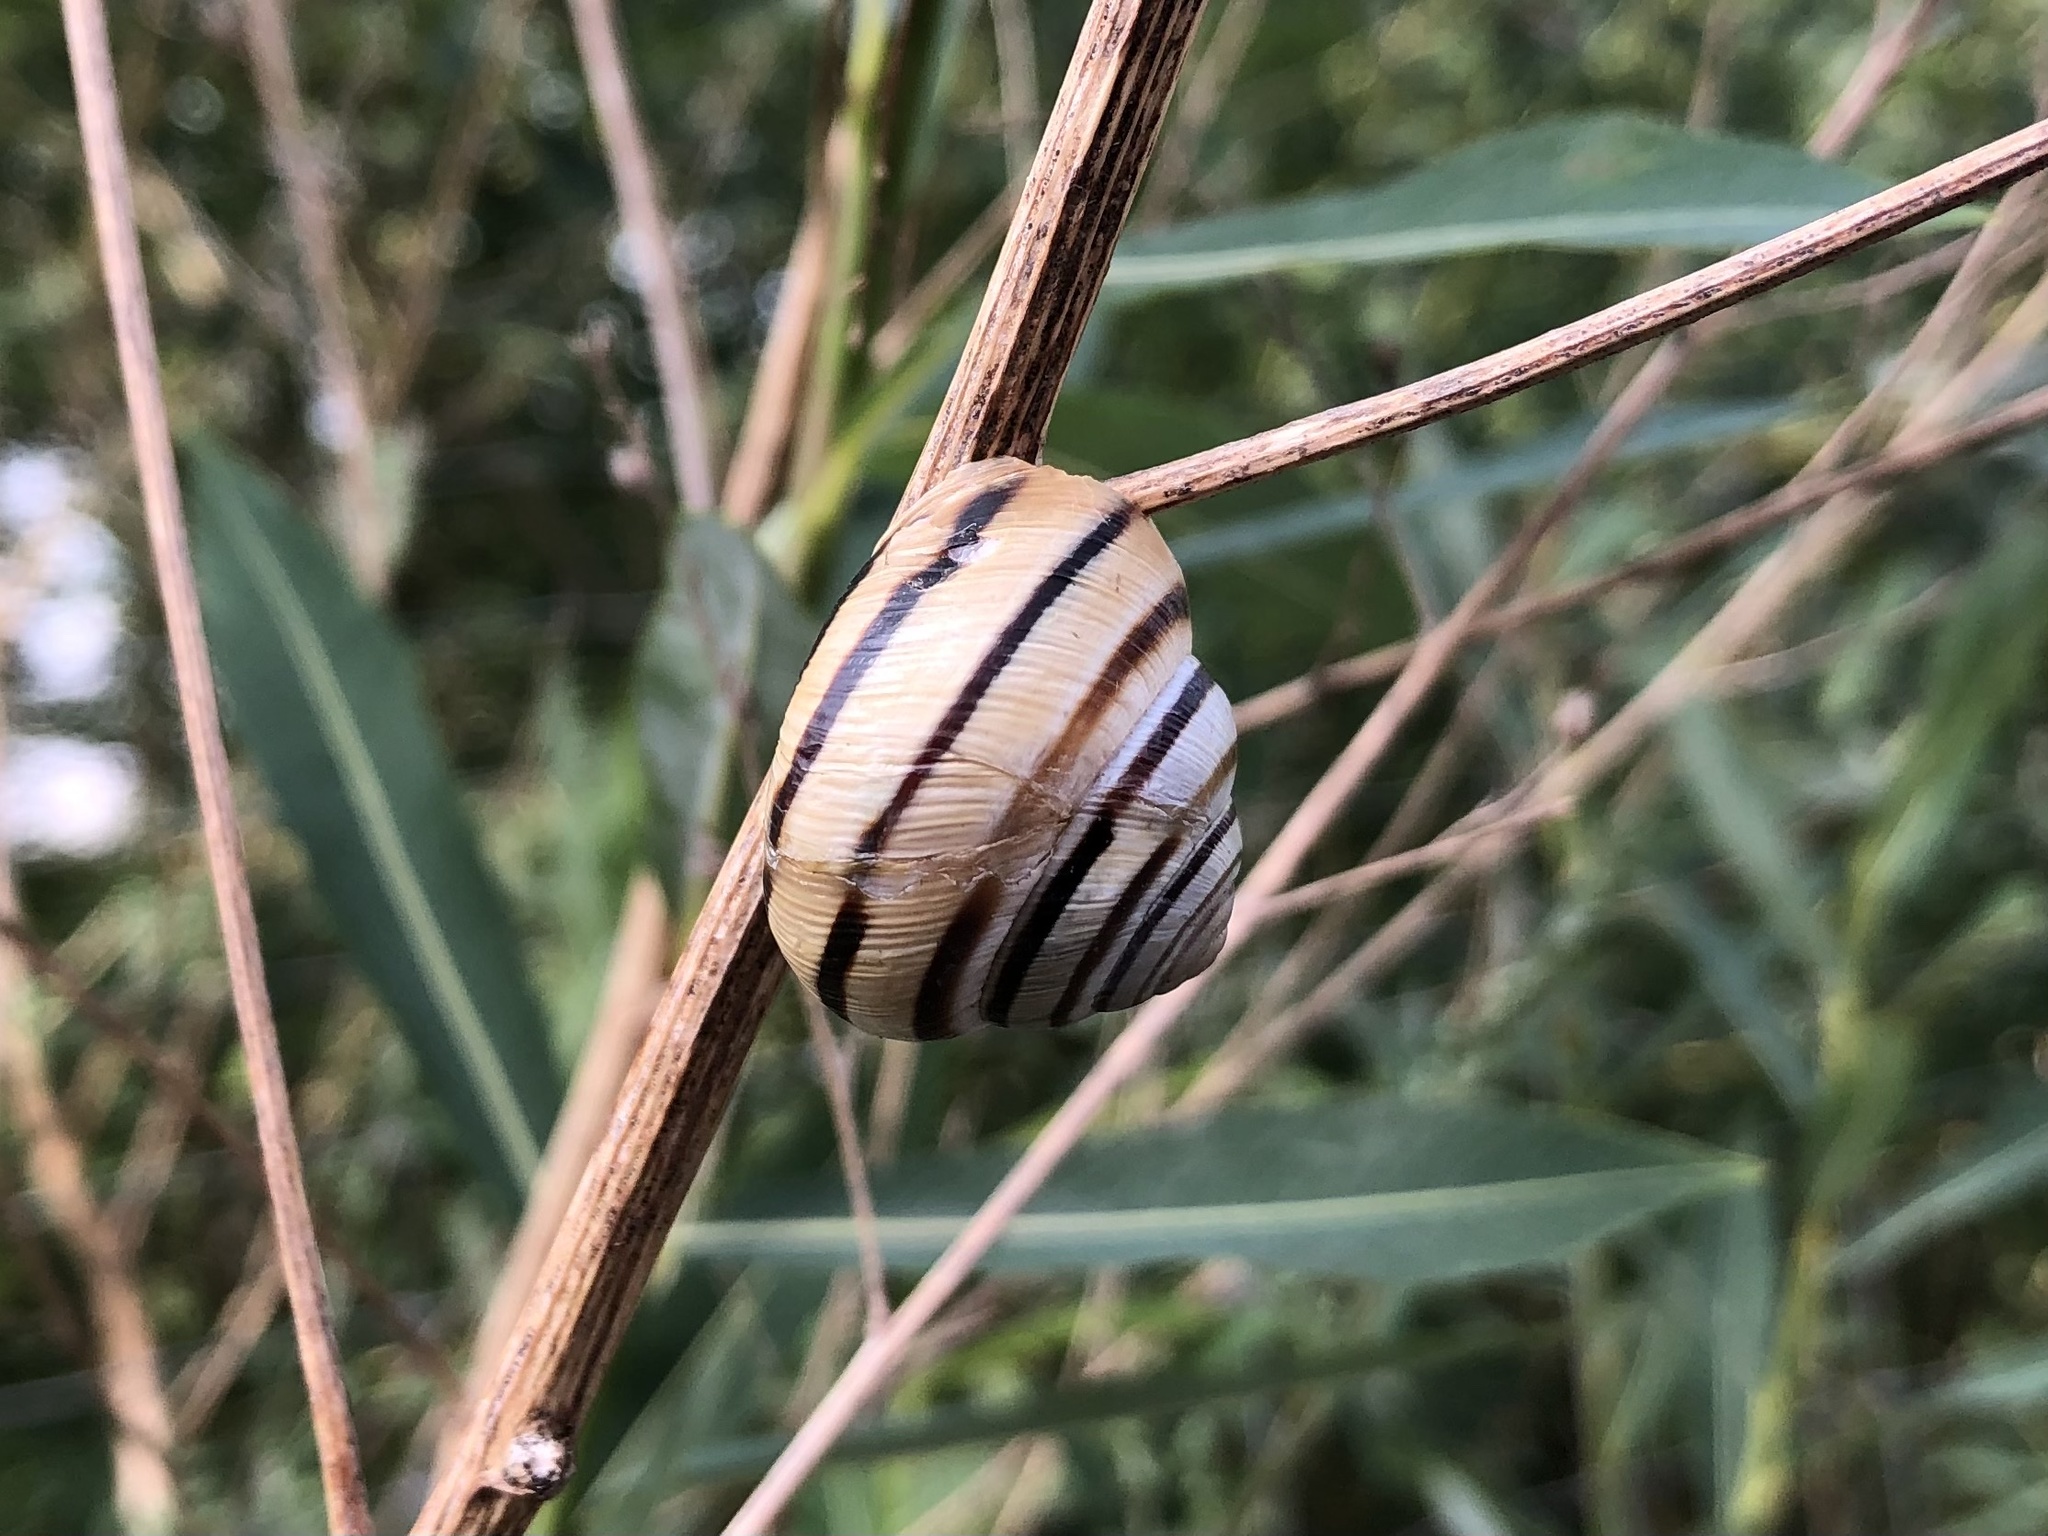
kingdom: Animalia
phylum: Mollusca
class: Gastropoda
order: Stylommatophora
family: Helicidae
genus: Caucasotachea
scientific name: Caucasotachea vindobonensis
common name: European helicid land snail
